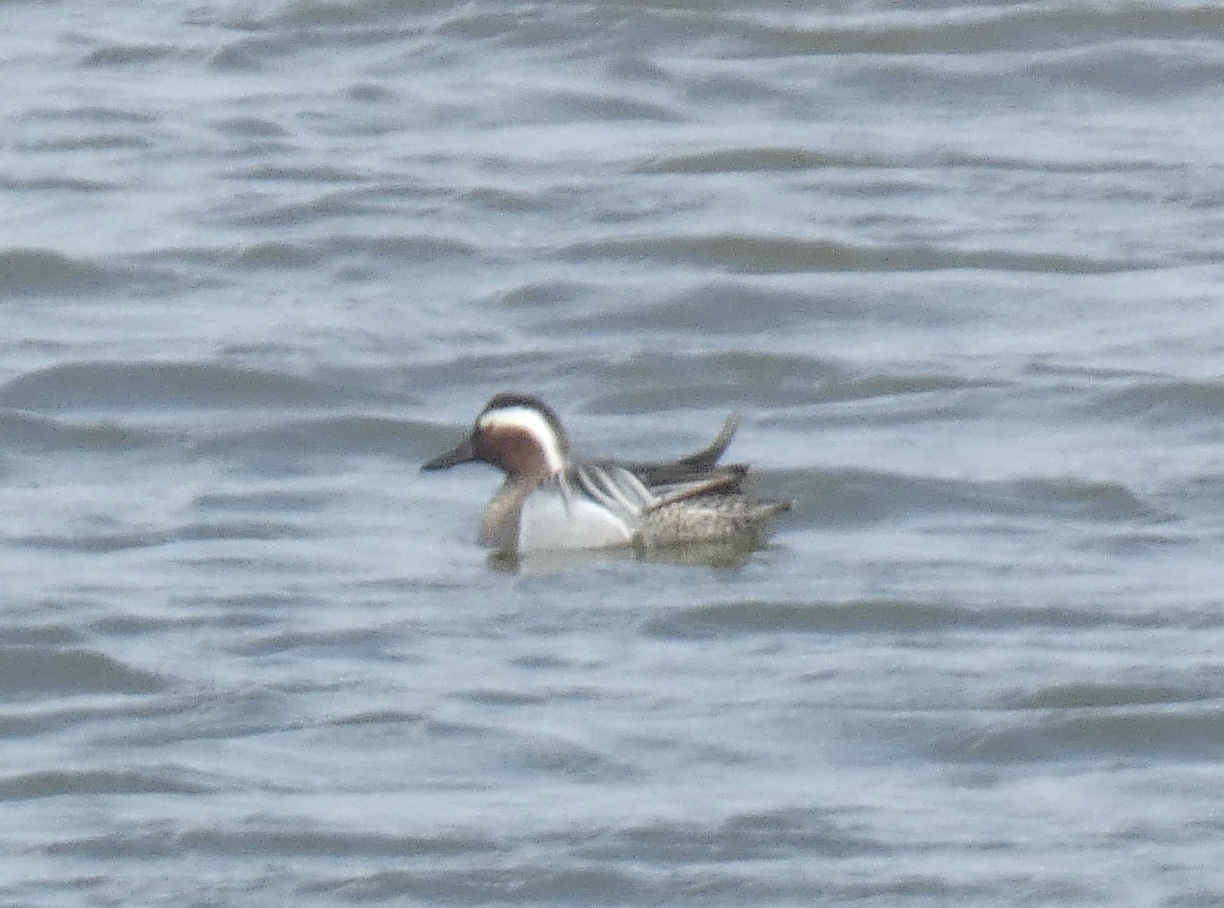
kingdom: Animalia
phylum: Chordata
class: Aves
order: Anseriformes
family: Anatidae
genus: Spatula
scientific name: Spatula querquedula
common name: Garganey
